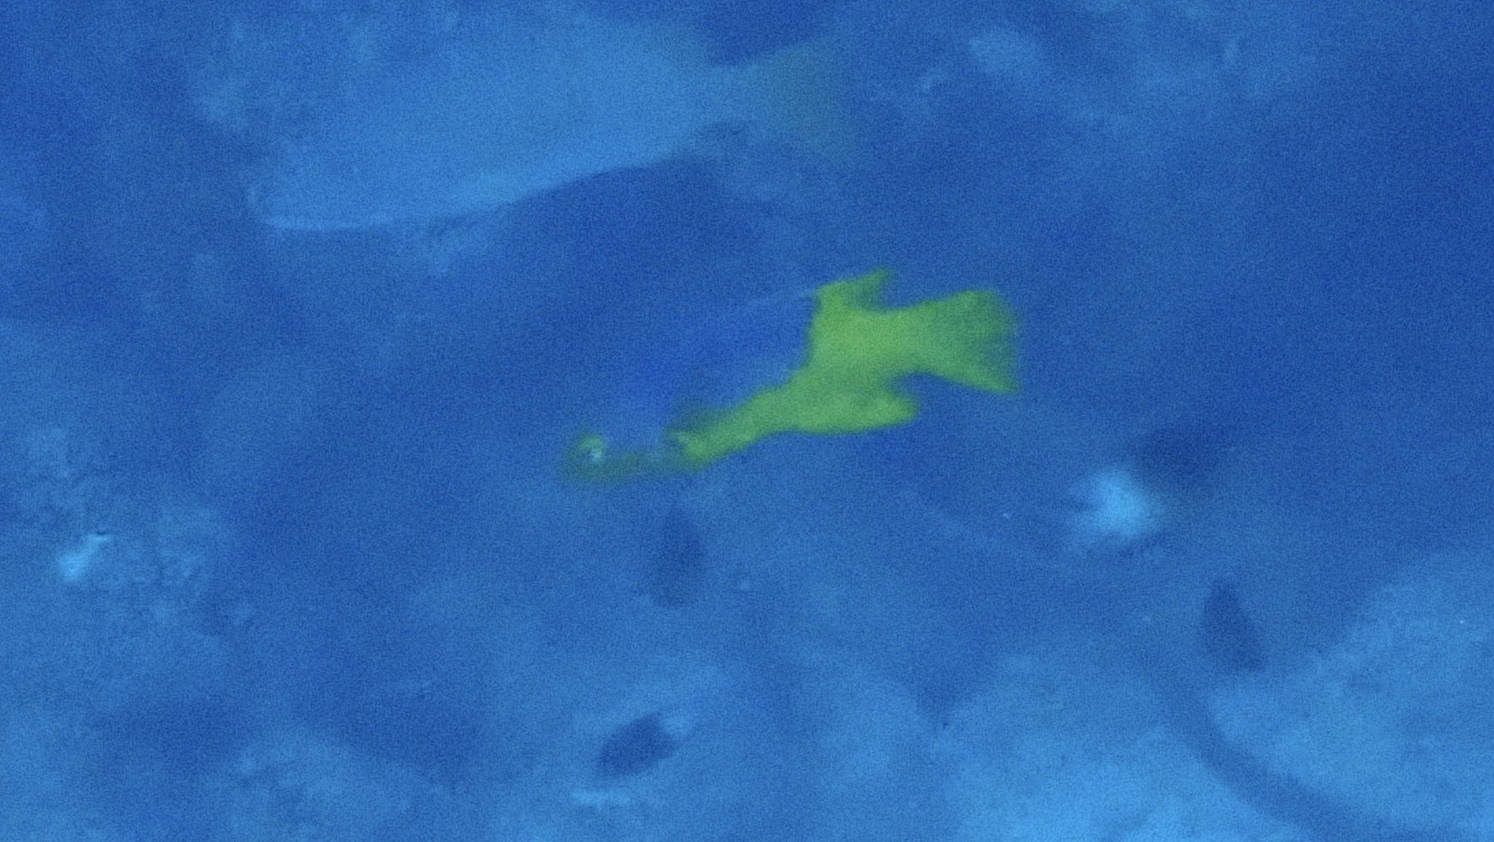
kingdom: Animalia
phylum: Chordata
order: Perciformes
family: Labridae
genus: Bodianus
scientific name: Bodianus rufus
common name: Spanish hogfish
